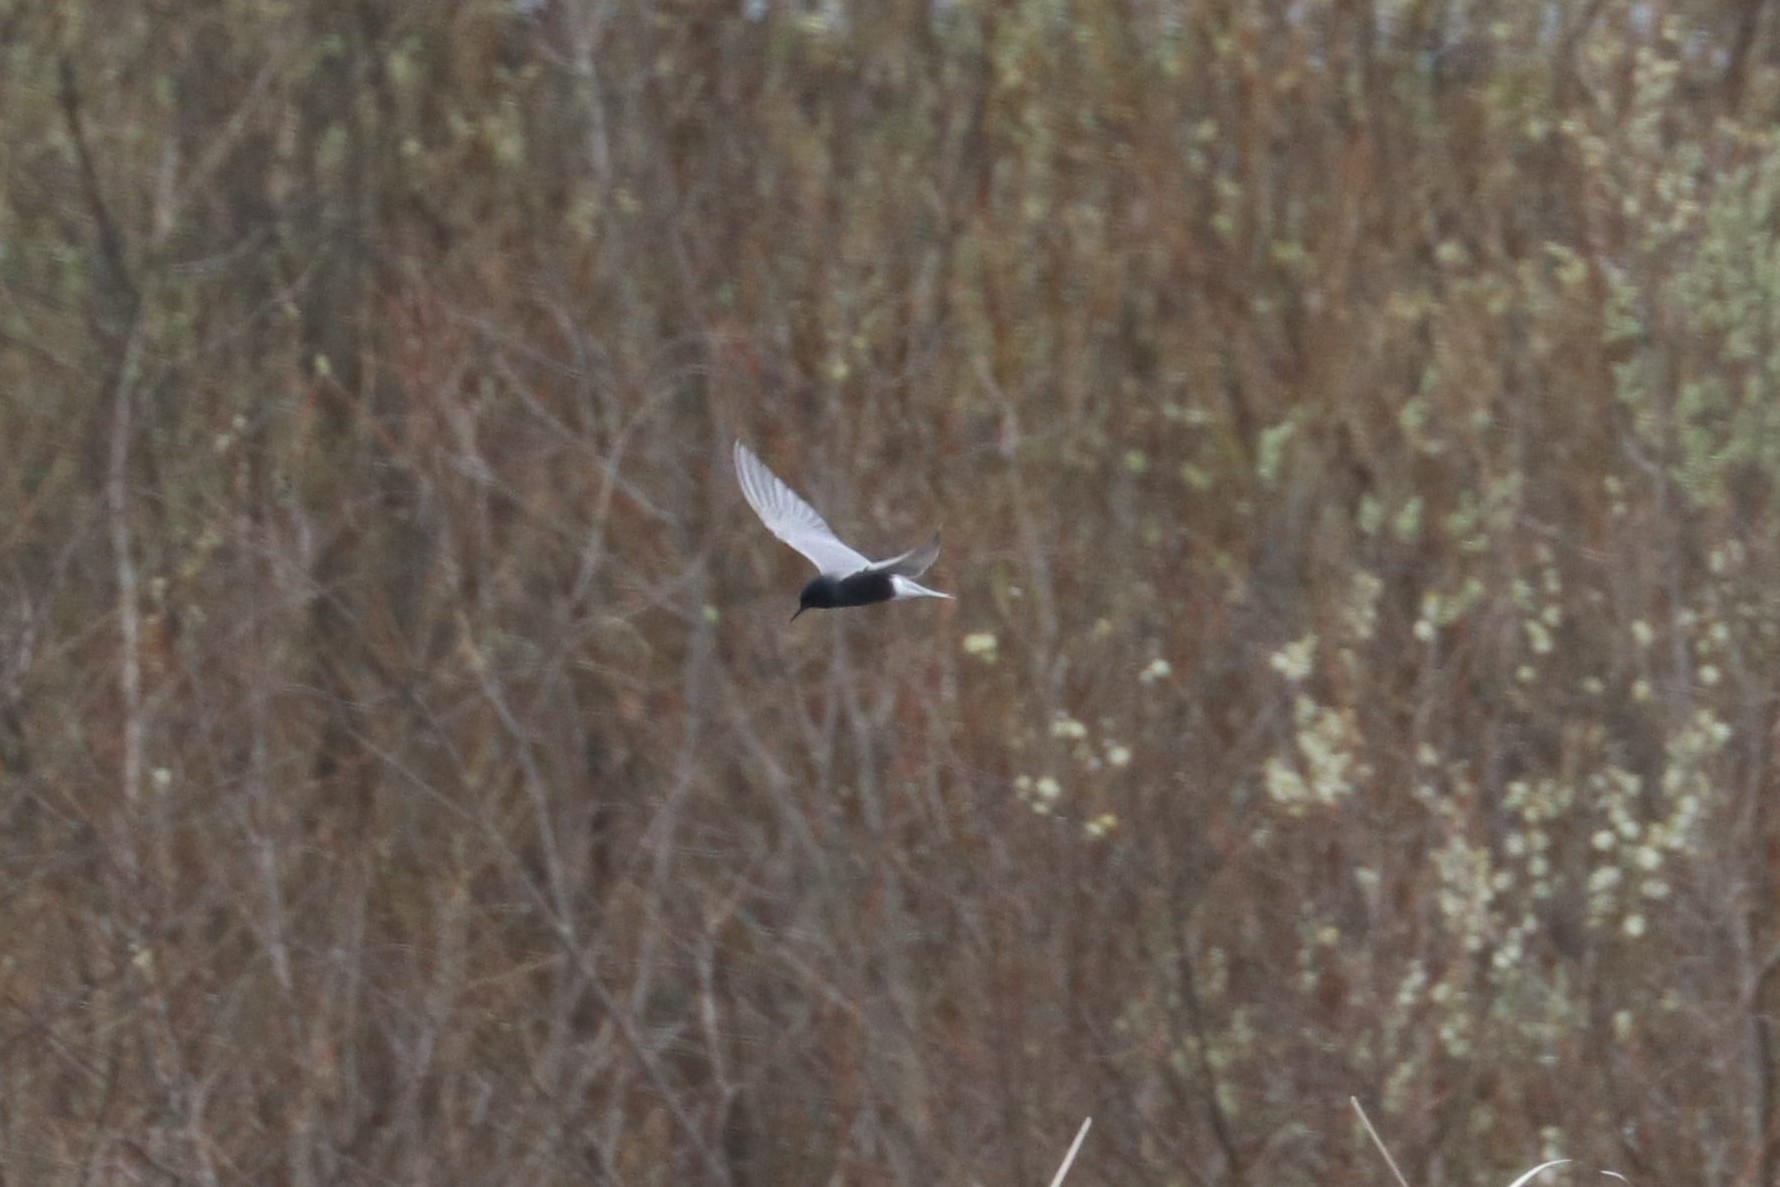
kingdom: Animalia
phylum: Chordata
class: Aves
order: Charadriiformes
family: Laridae
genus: Chlidonias
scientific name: Chlidonias niger
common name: Black tern
